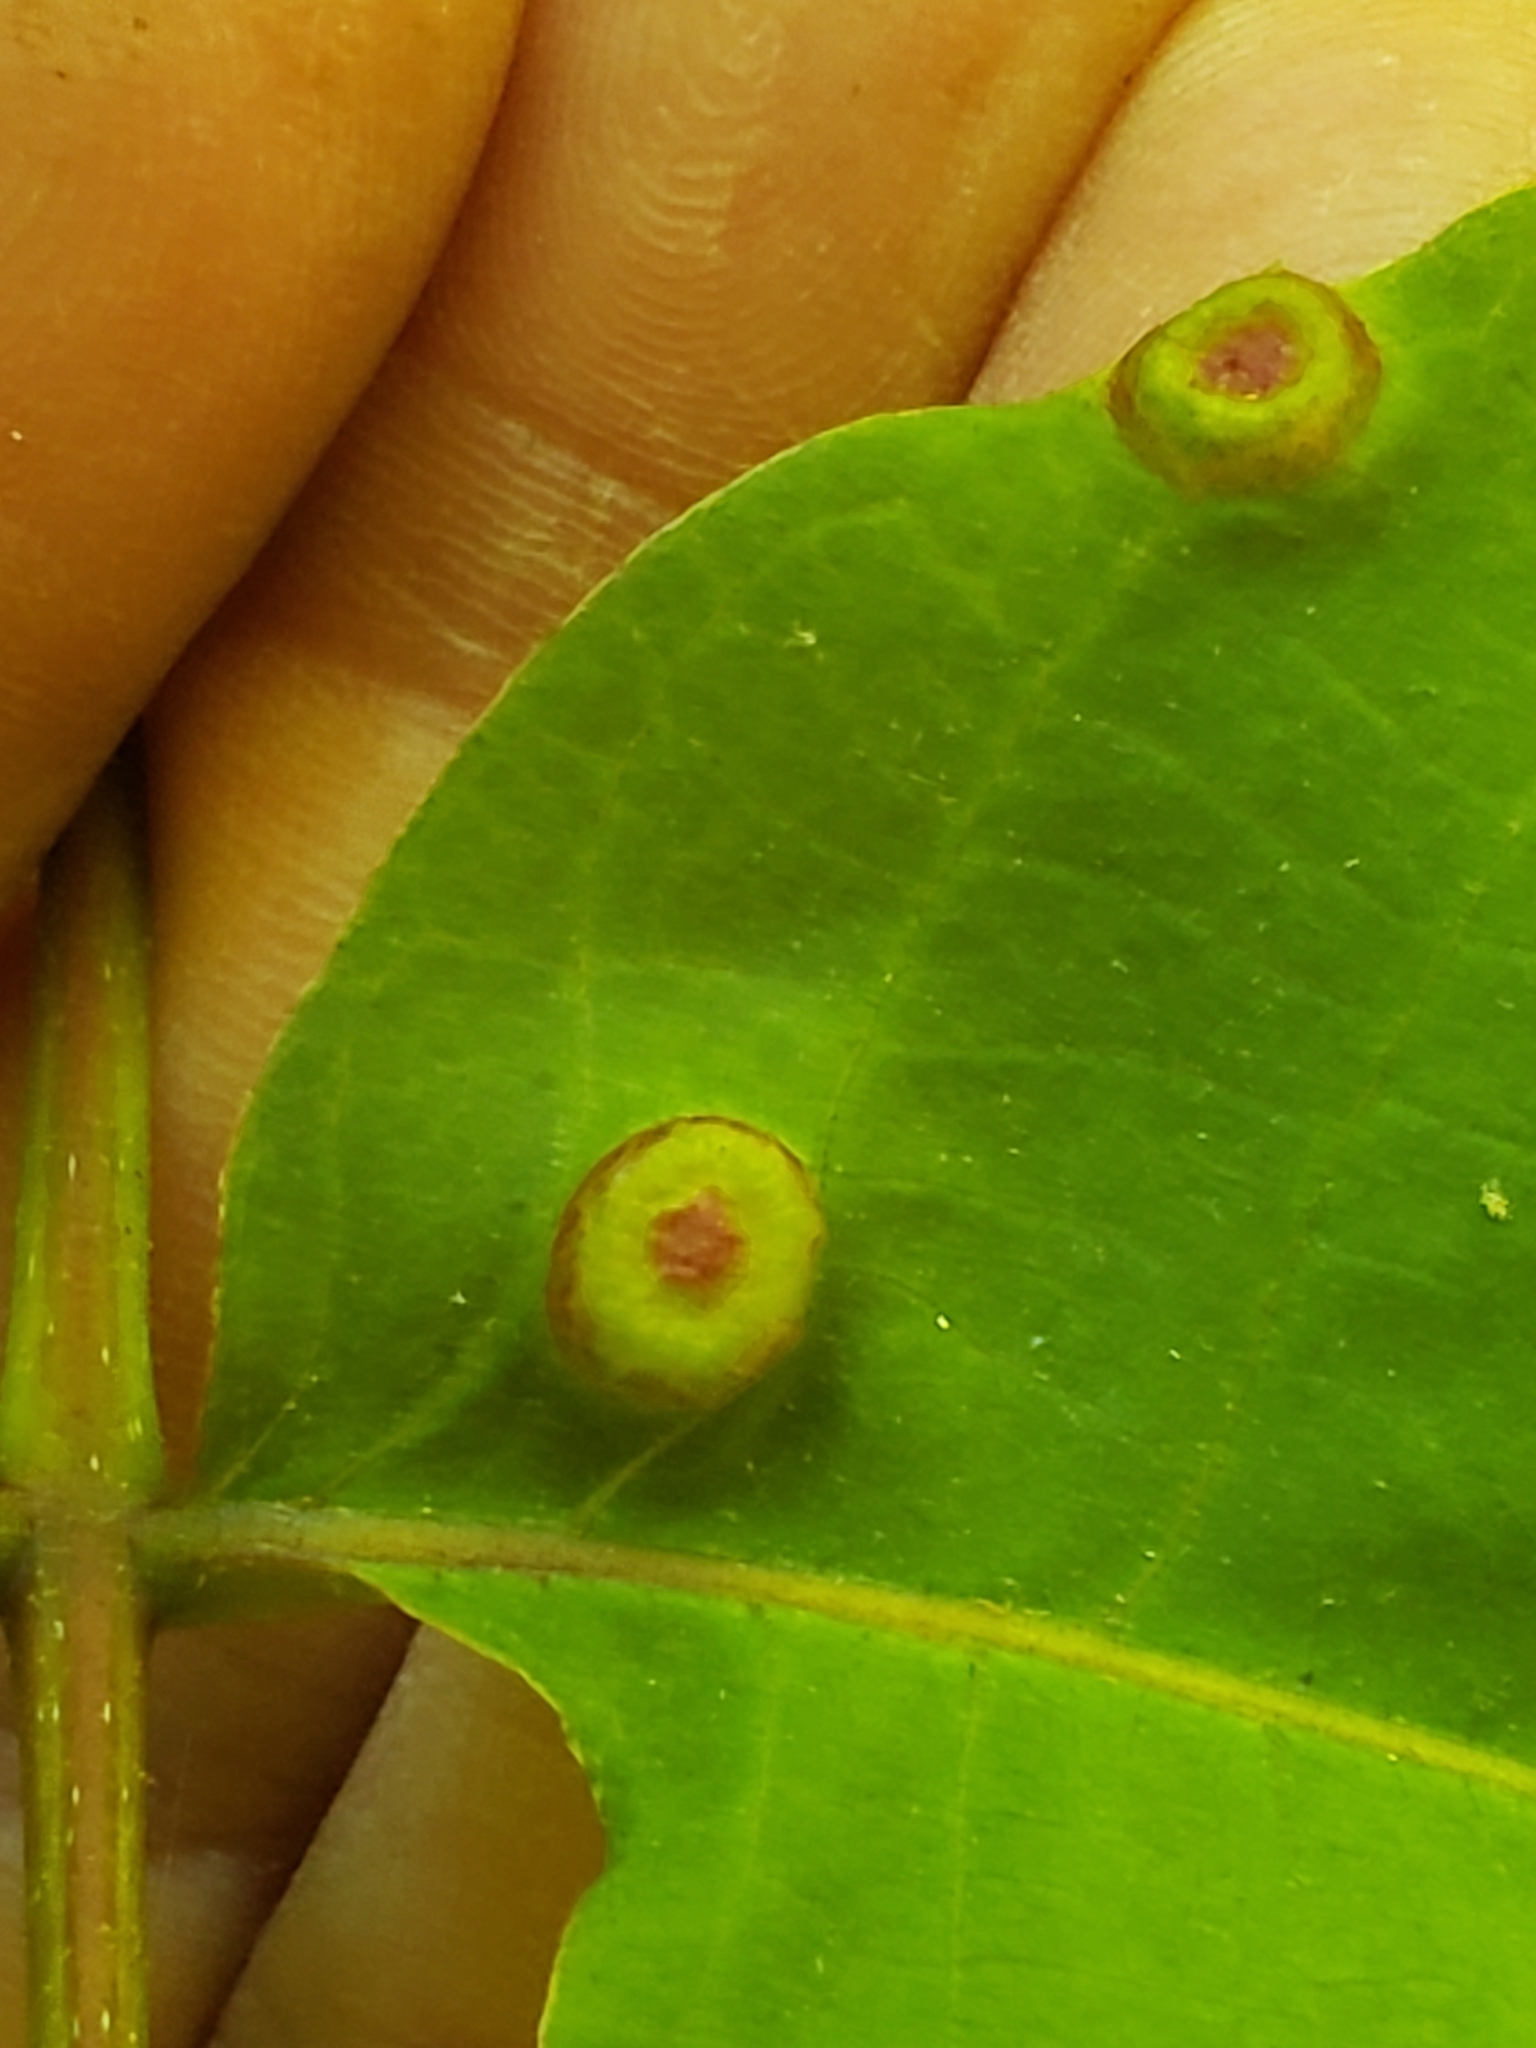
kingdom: Animalia
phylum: Arthropoda
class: Insecta
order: Hemiptera
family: Phylloxeridae
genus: Phylloxera
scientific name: Phylloxera foveola
